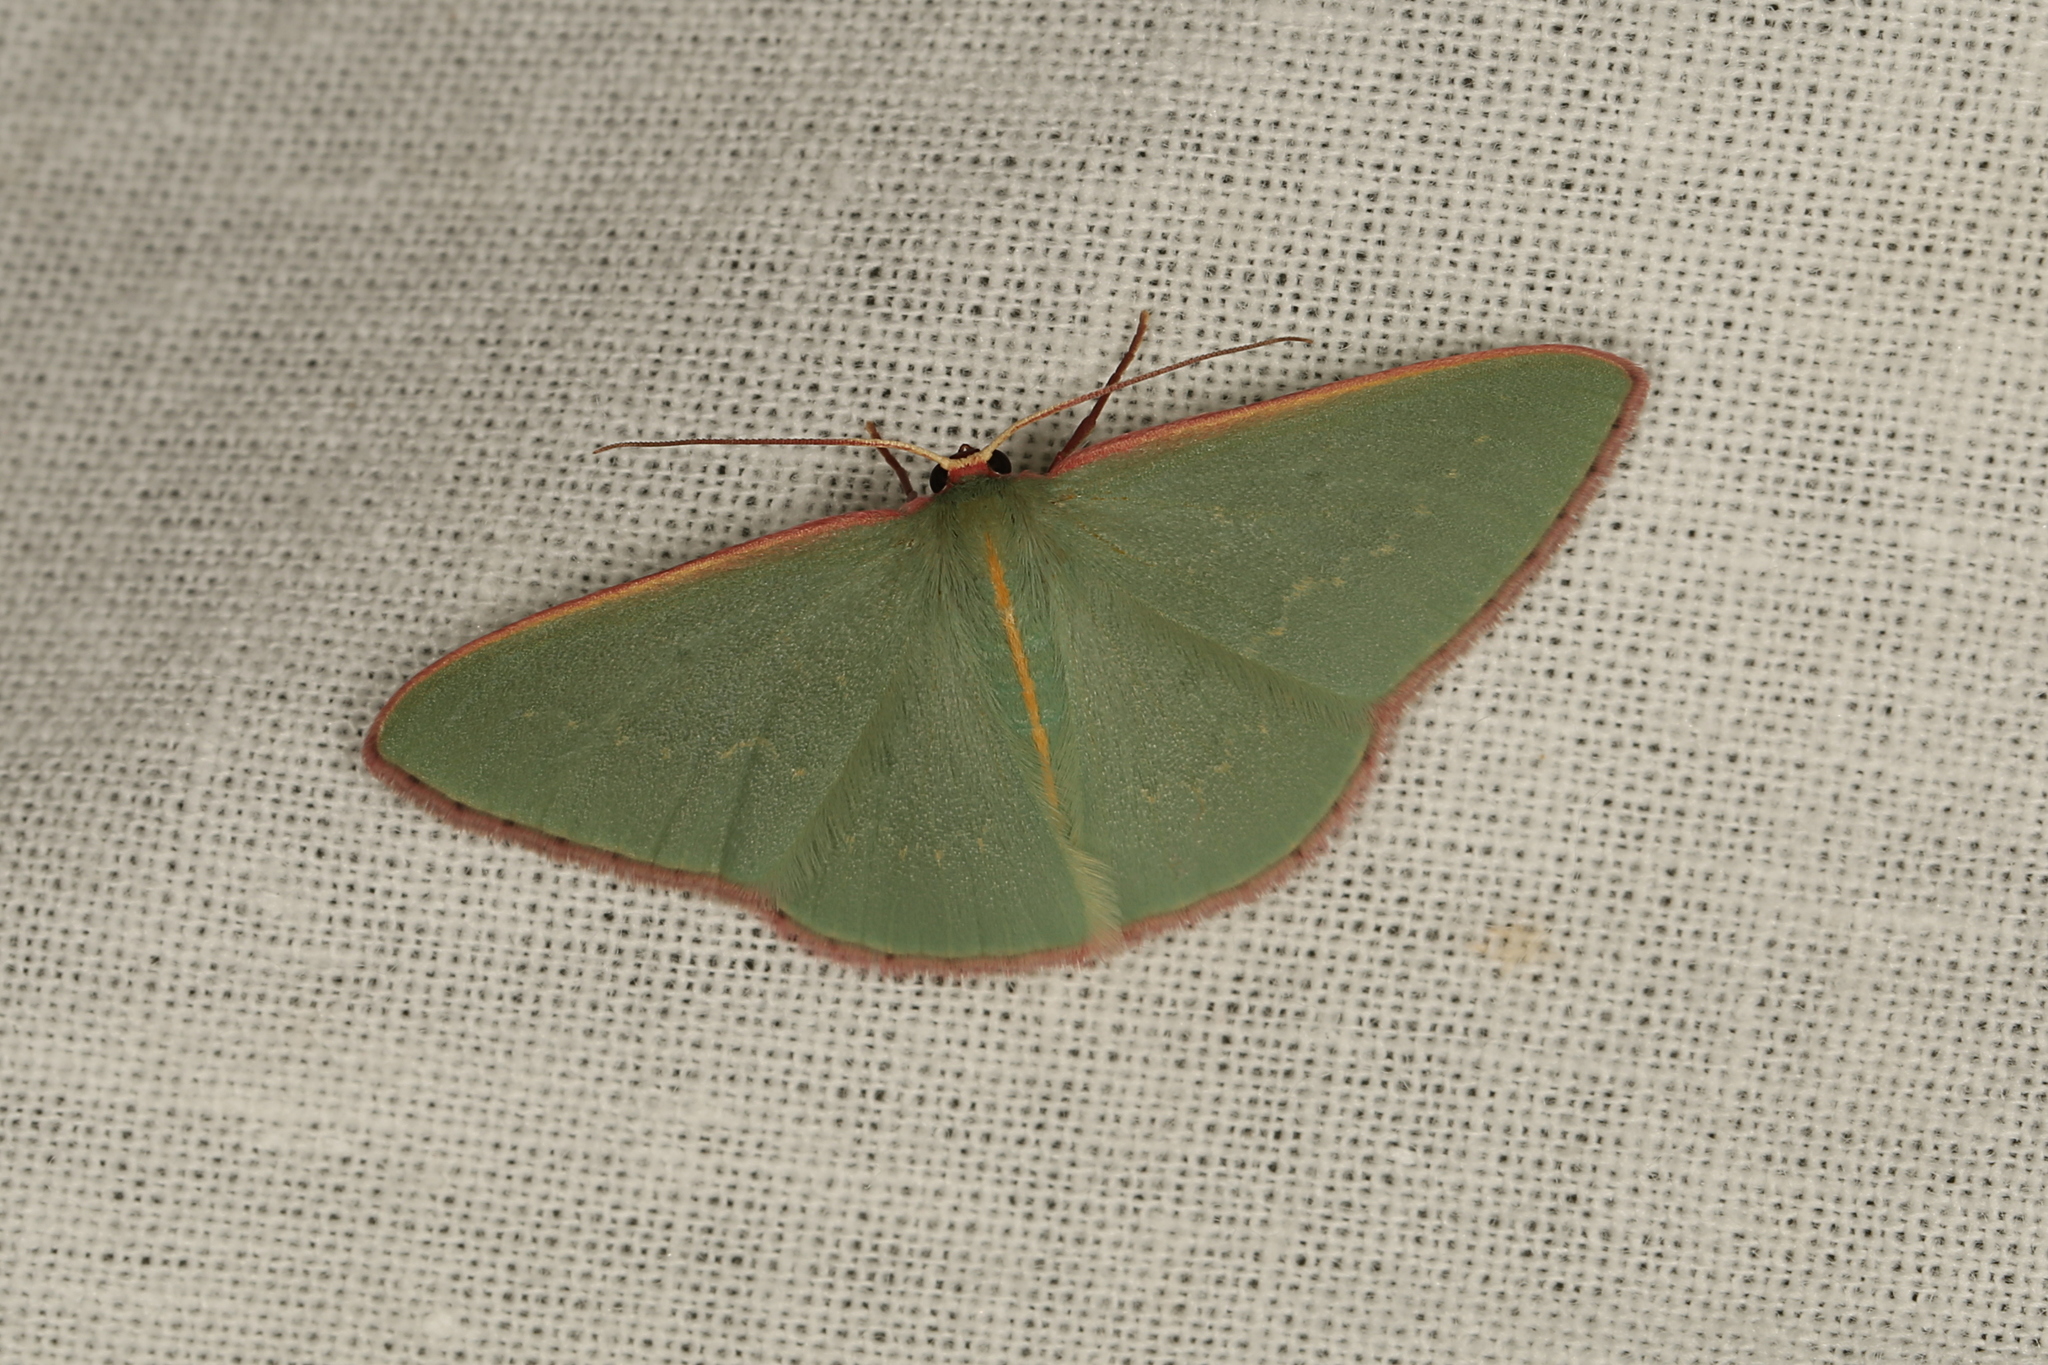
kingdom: Animalia
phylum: Arthropoda
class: Insecta
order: Lepidoptera
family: Geometridae
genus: Chlorocoma
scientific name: Chlorocoma vertumnaria
